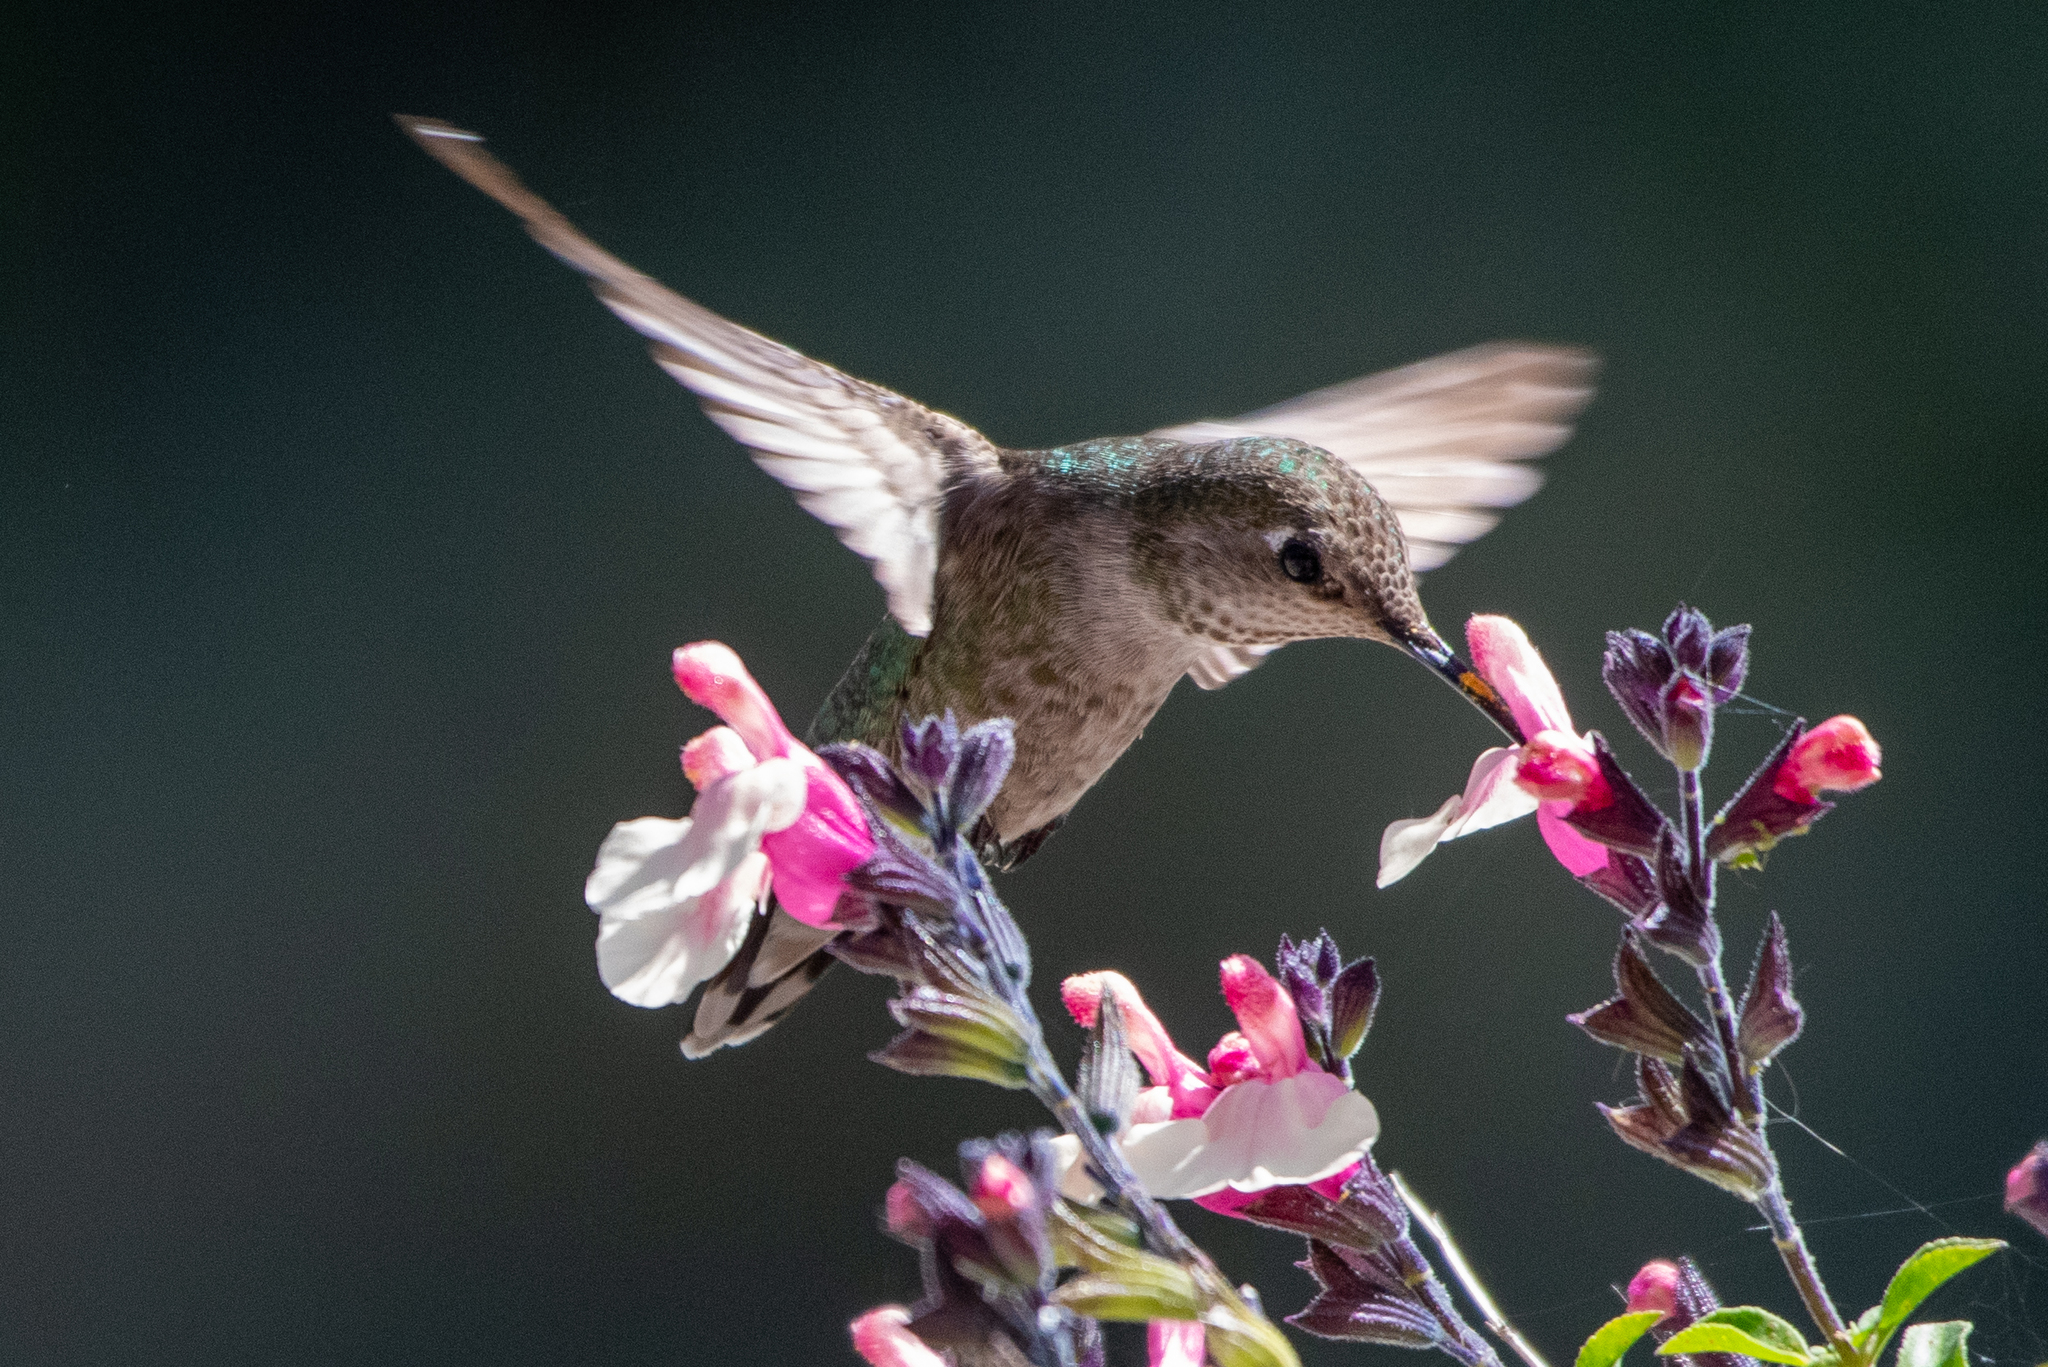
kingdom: Animalia
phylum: Chordata
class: Aves
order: Apodiformes
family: Trochilidae
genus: Calypte
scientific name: Calypte anna
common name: Anna's hummingbird
